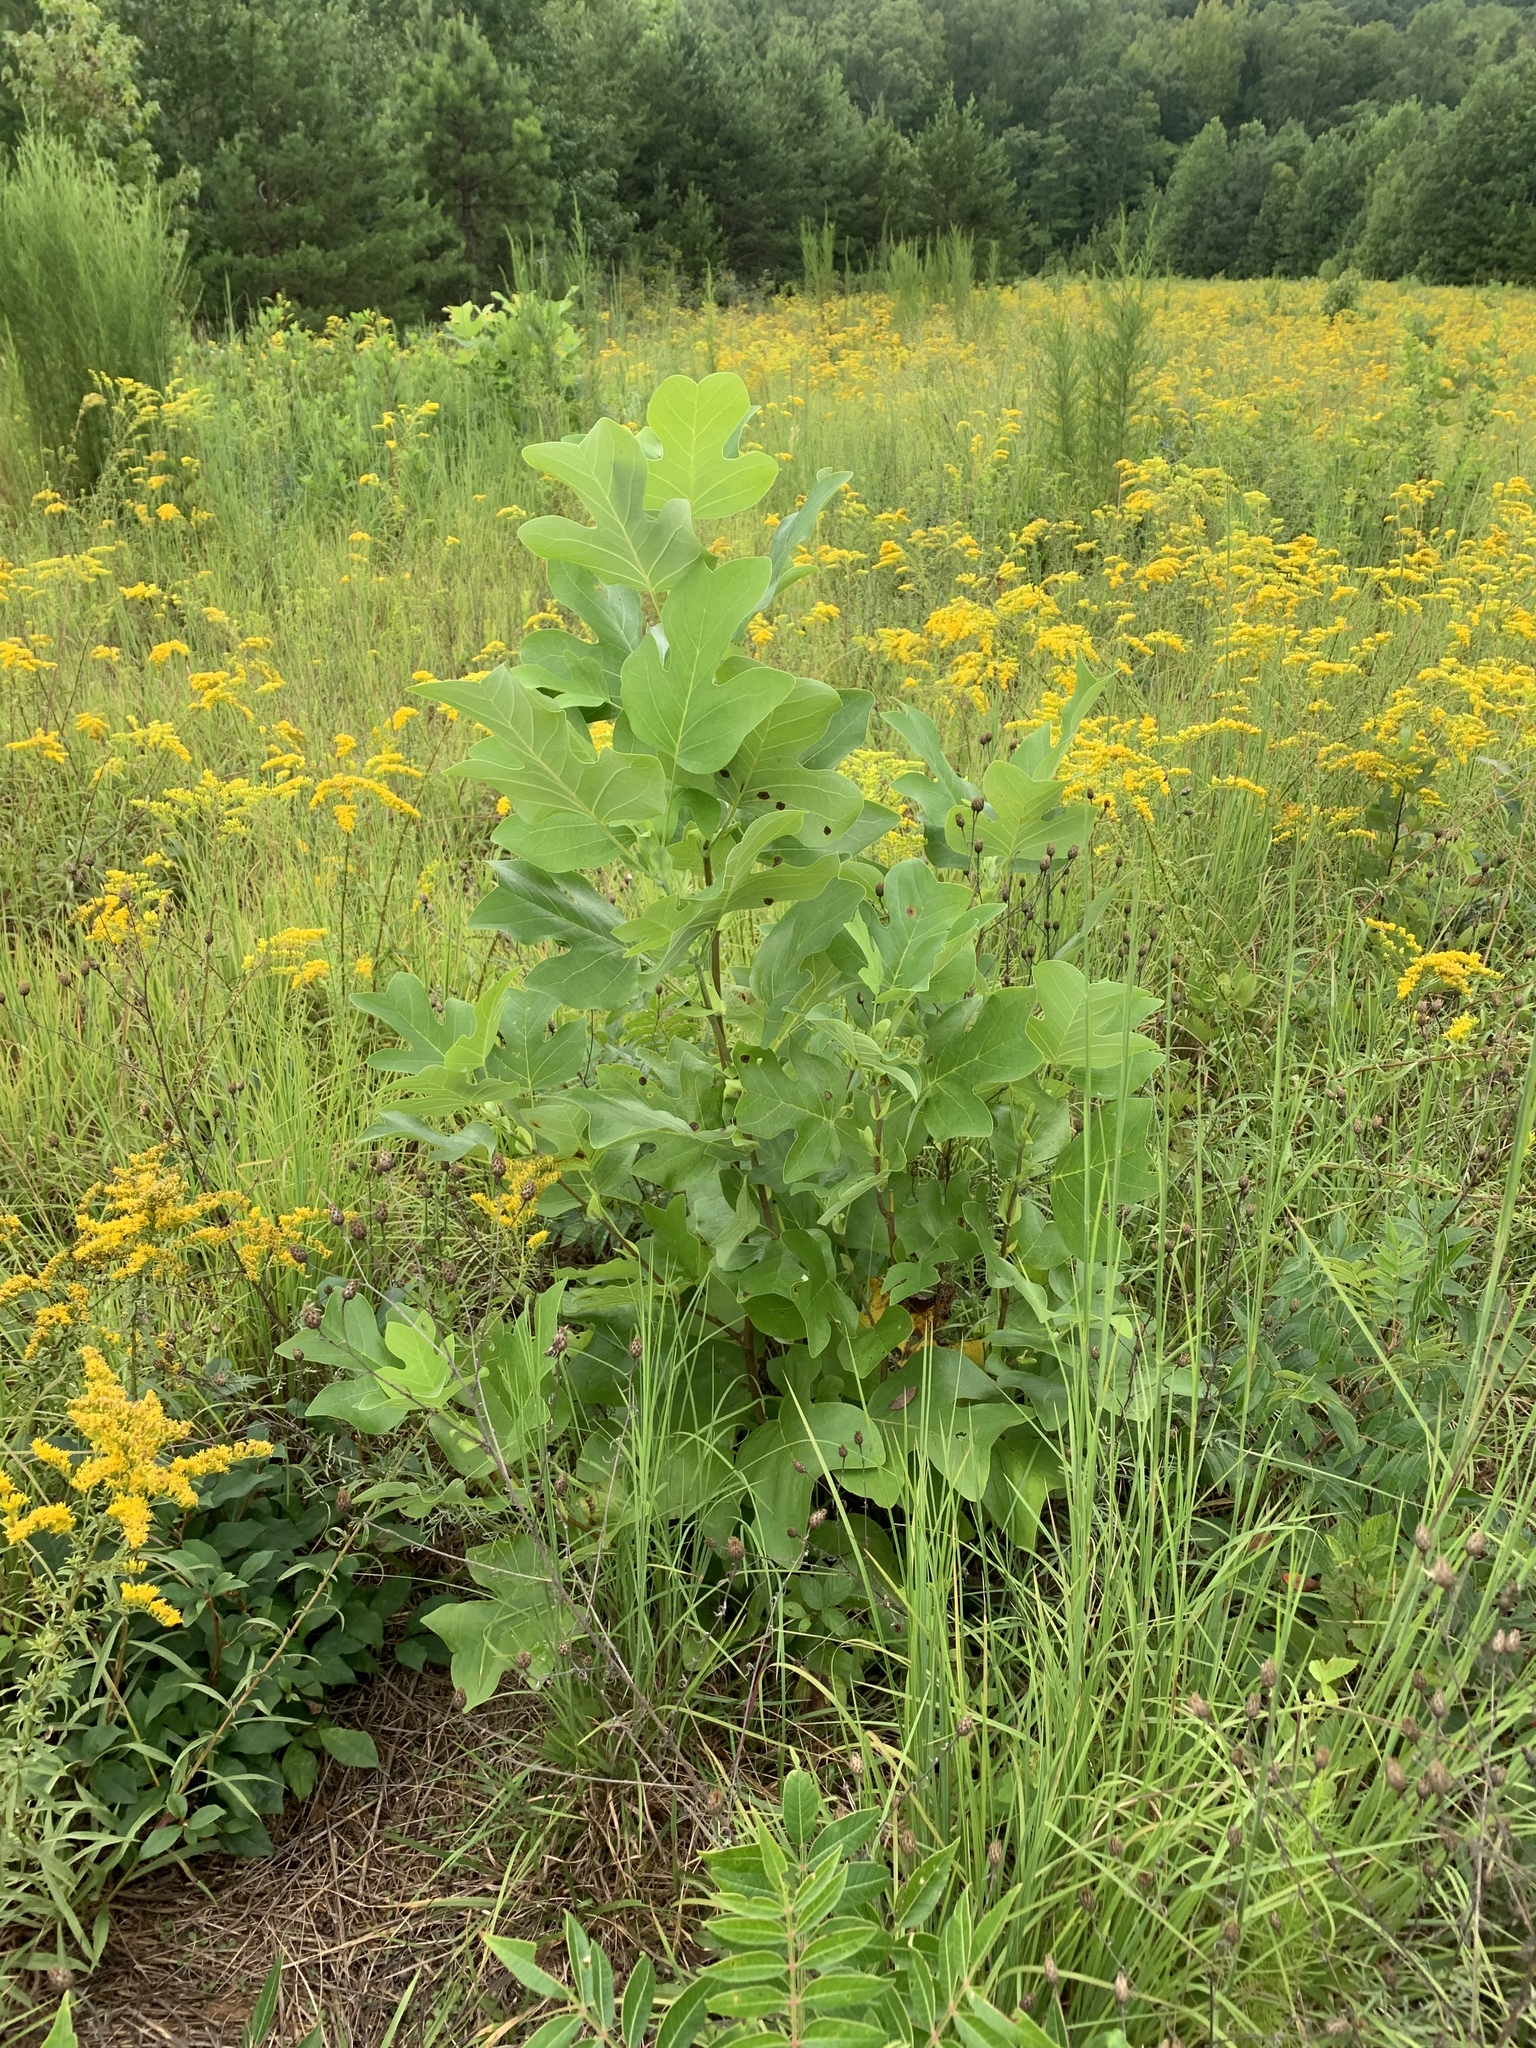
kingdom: Plantae
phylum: Tracheophyta
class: Magnoliopsida
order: Magnoliales
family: Magnoliaceae
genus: Liriodendron
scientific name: Liriodendron tulipifera
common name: Tulip tree
